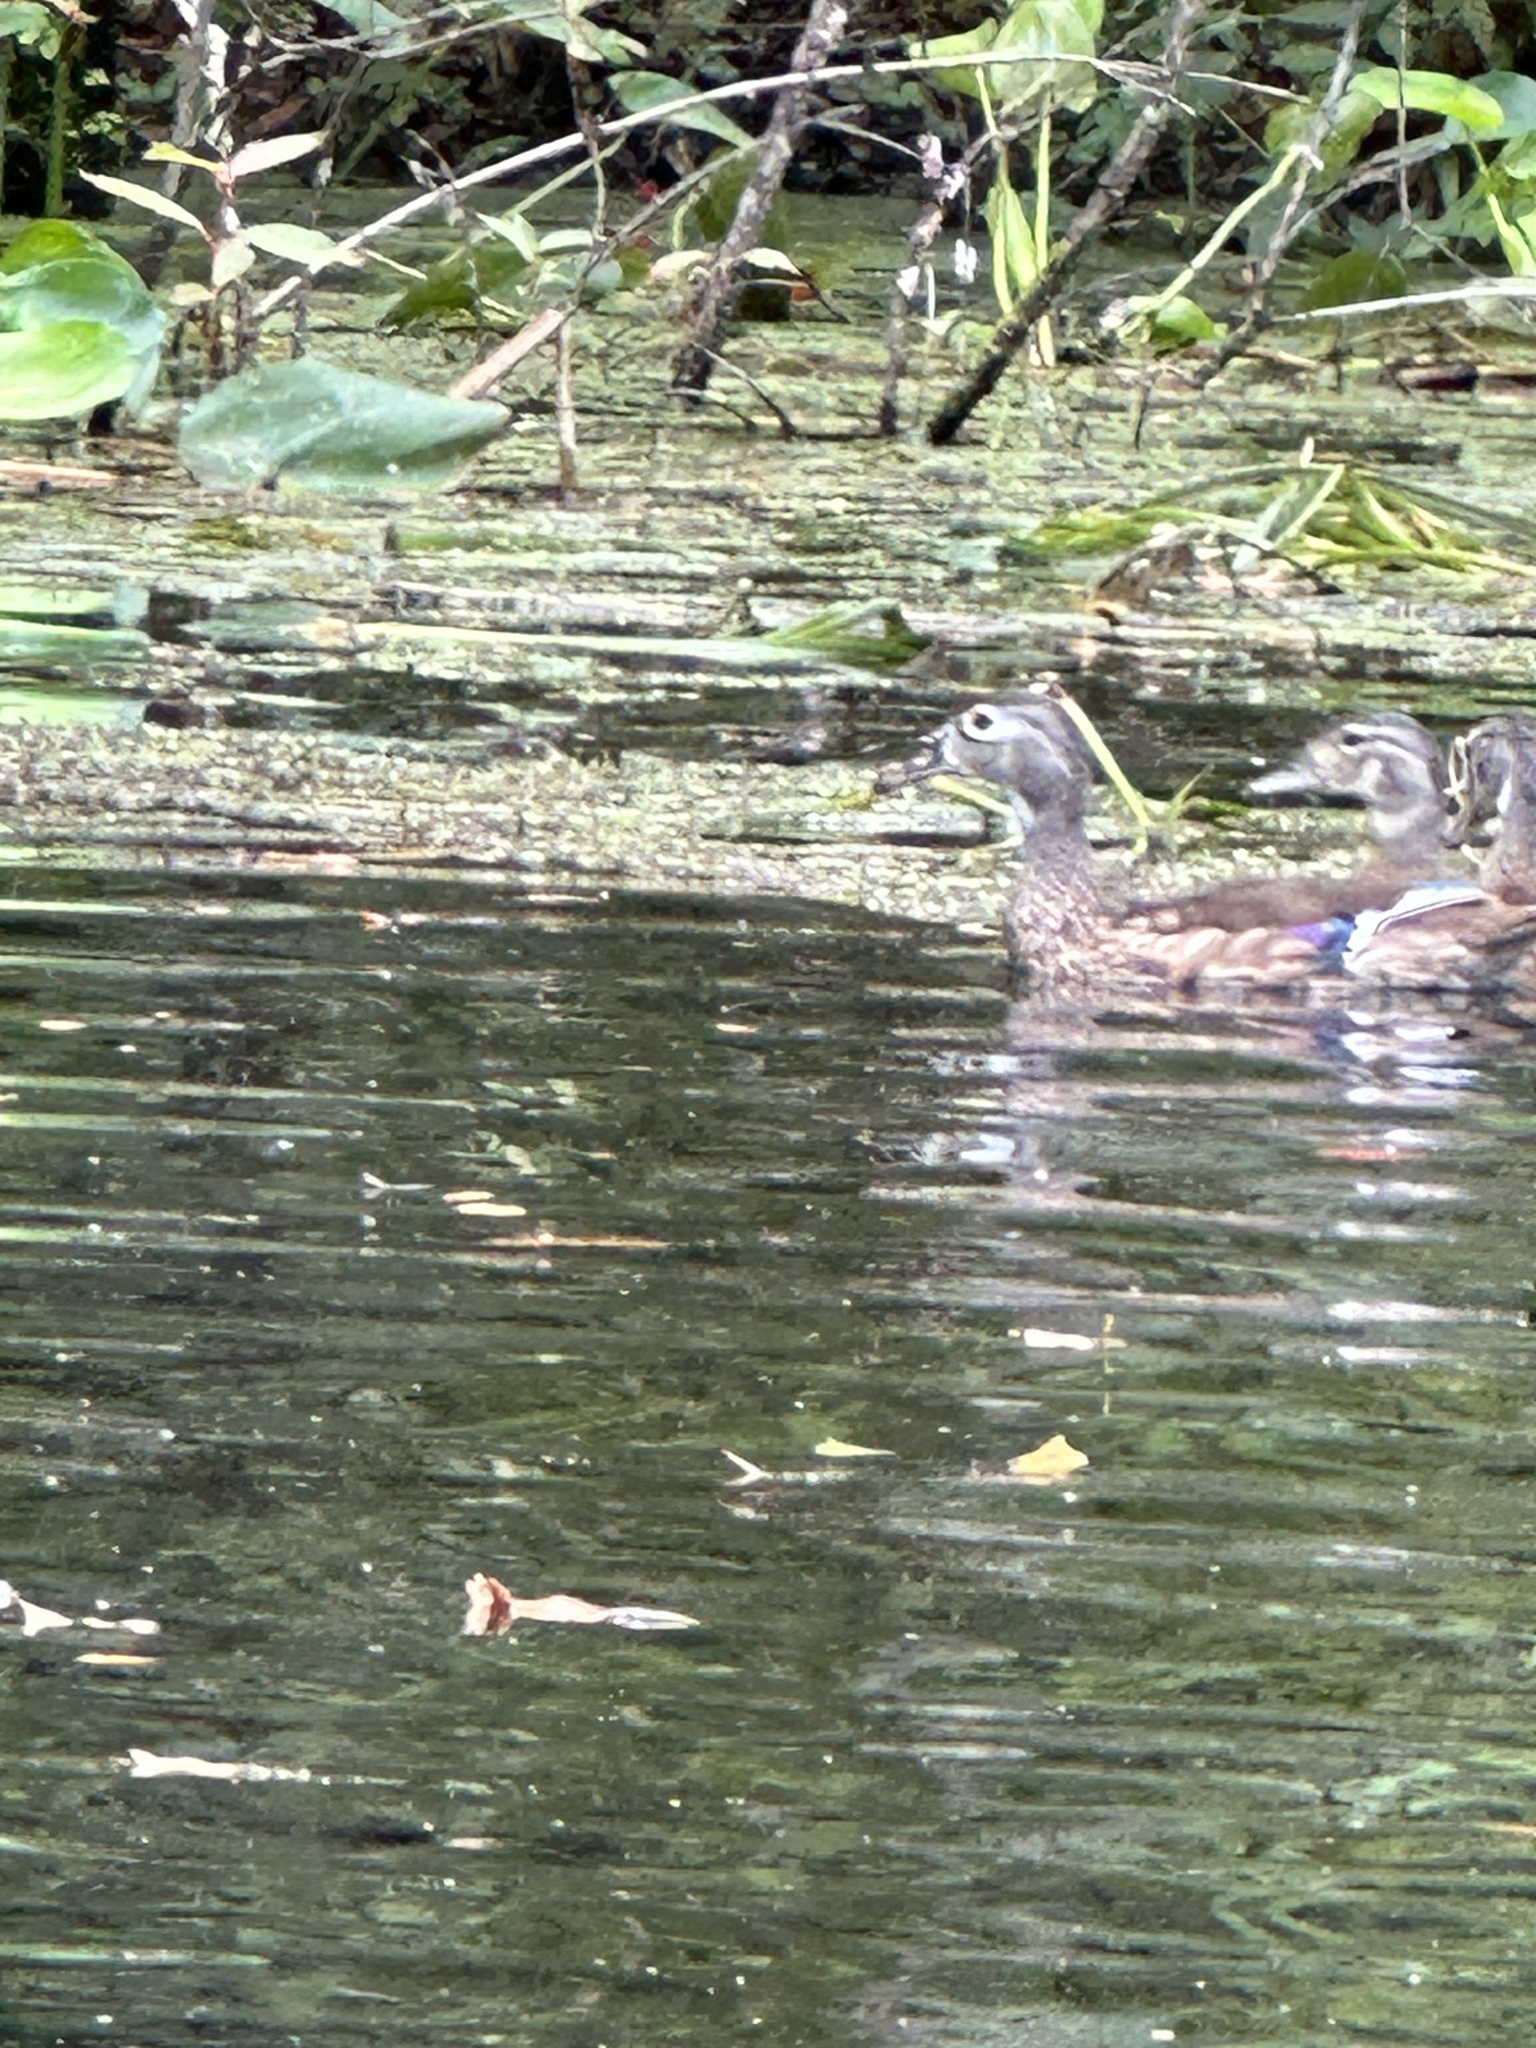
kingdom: Animalia
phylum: Chordata
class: Aves
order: Anseriformes
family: Anatidae
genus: Aix
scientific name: Aix sponsa
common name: Wood duck
